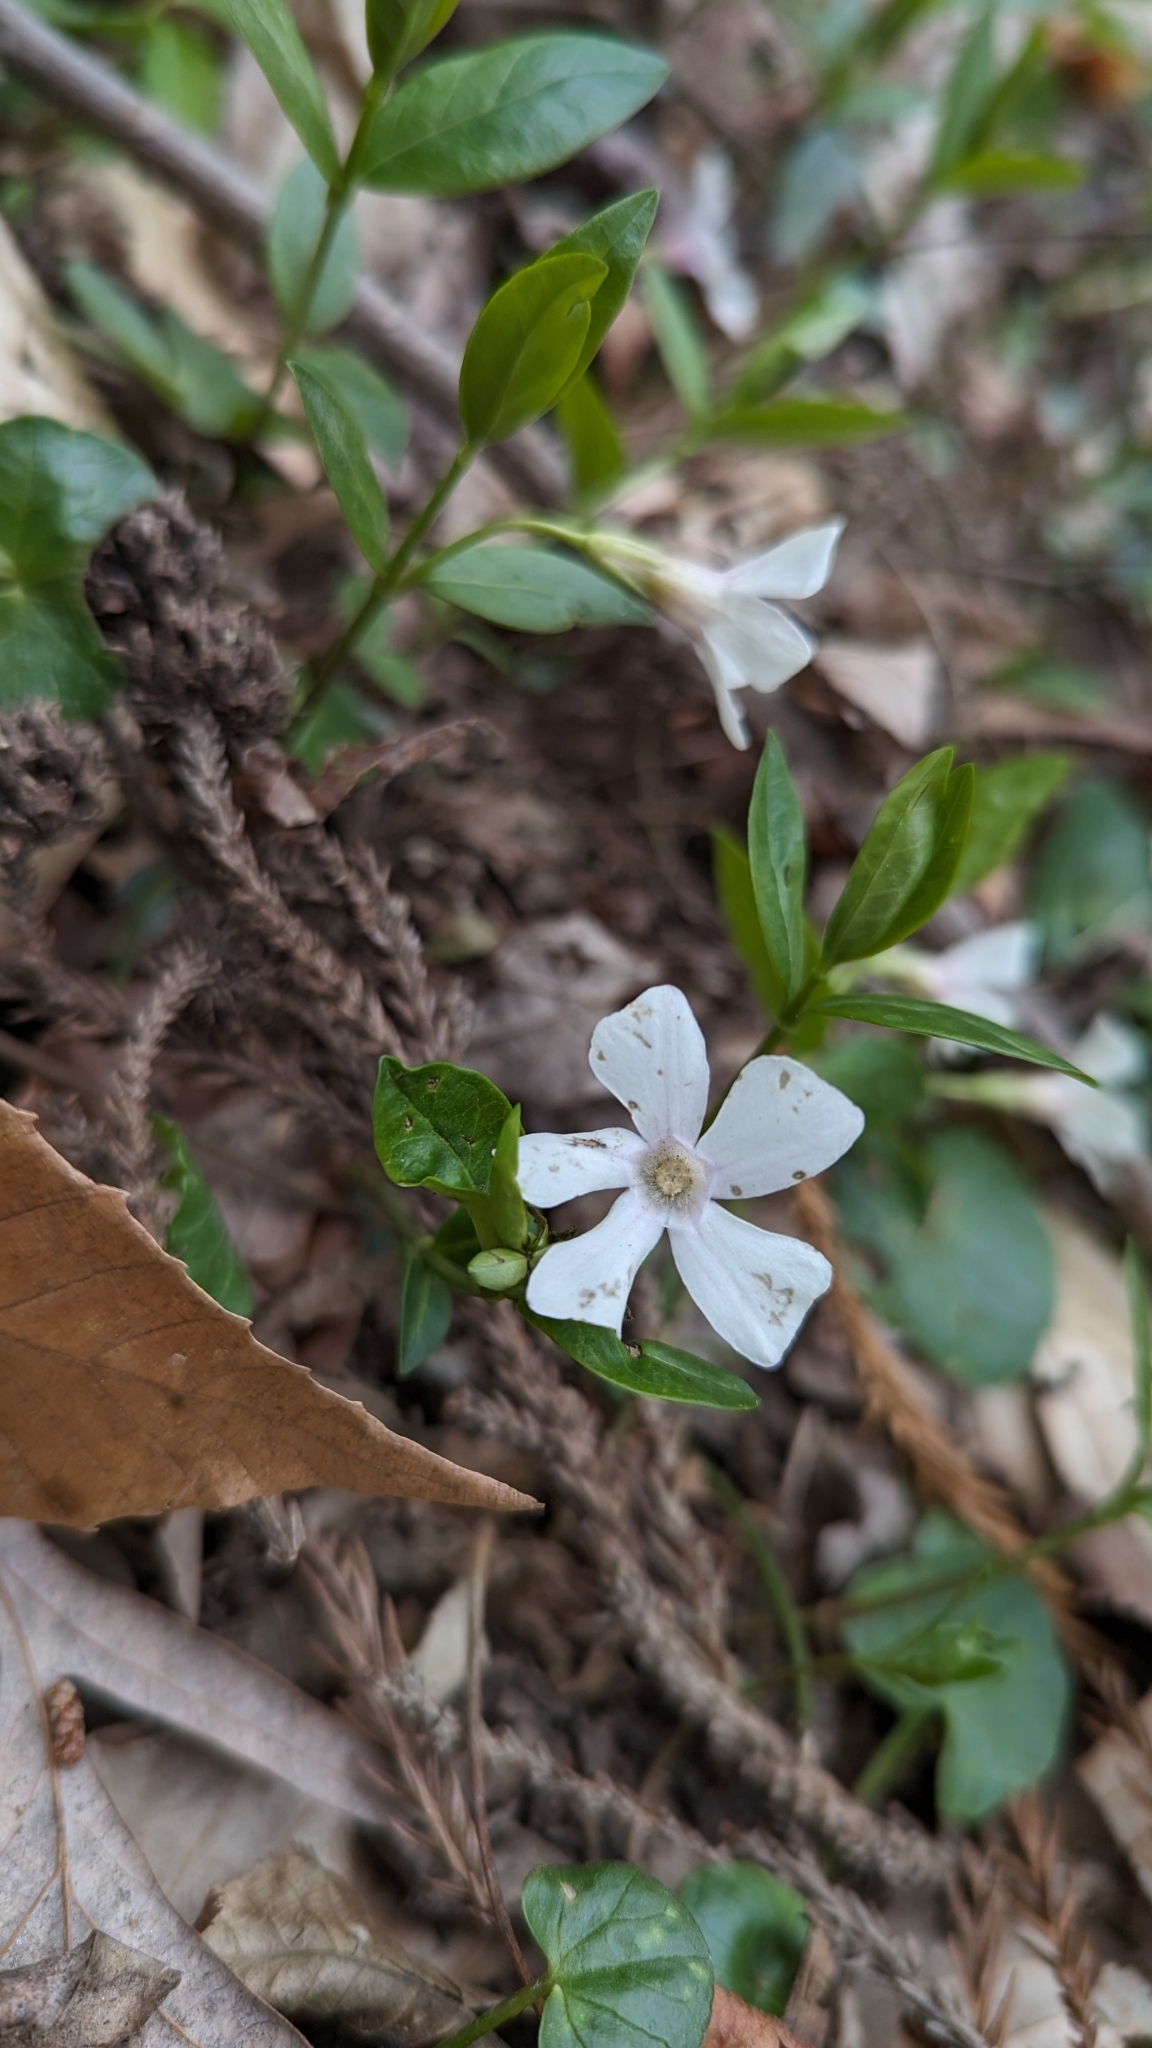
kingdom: Plantae
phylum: Tracheophyta
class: Magnoliopsida
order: Gentianales
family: Apocynaceae
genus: Vinca
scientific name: Vinca minor
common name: Lesser periwinkle
